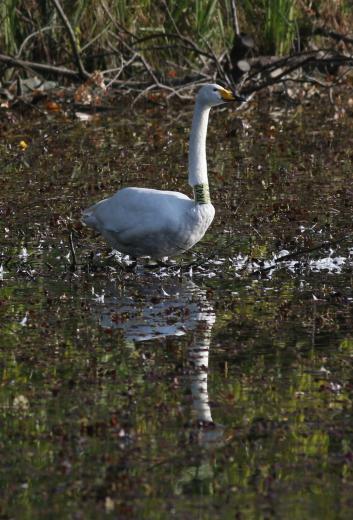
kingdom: Animalia
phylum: Chordata
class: Aves
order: Anseriformes
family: Anatidae
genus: Cygnus
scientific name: Cygnus cygnus
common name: Whooper swan
